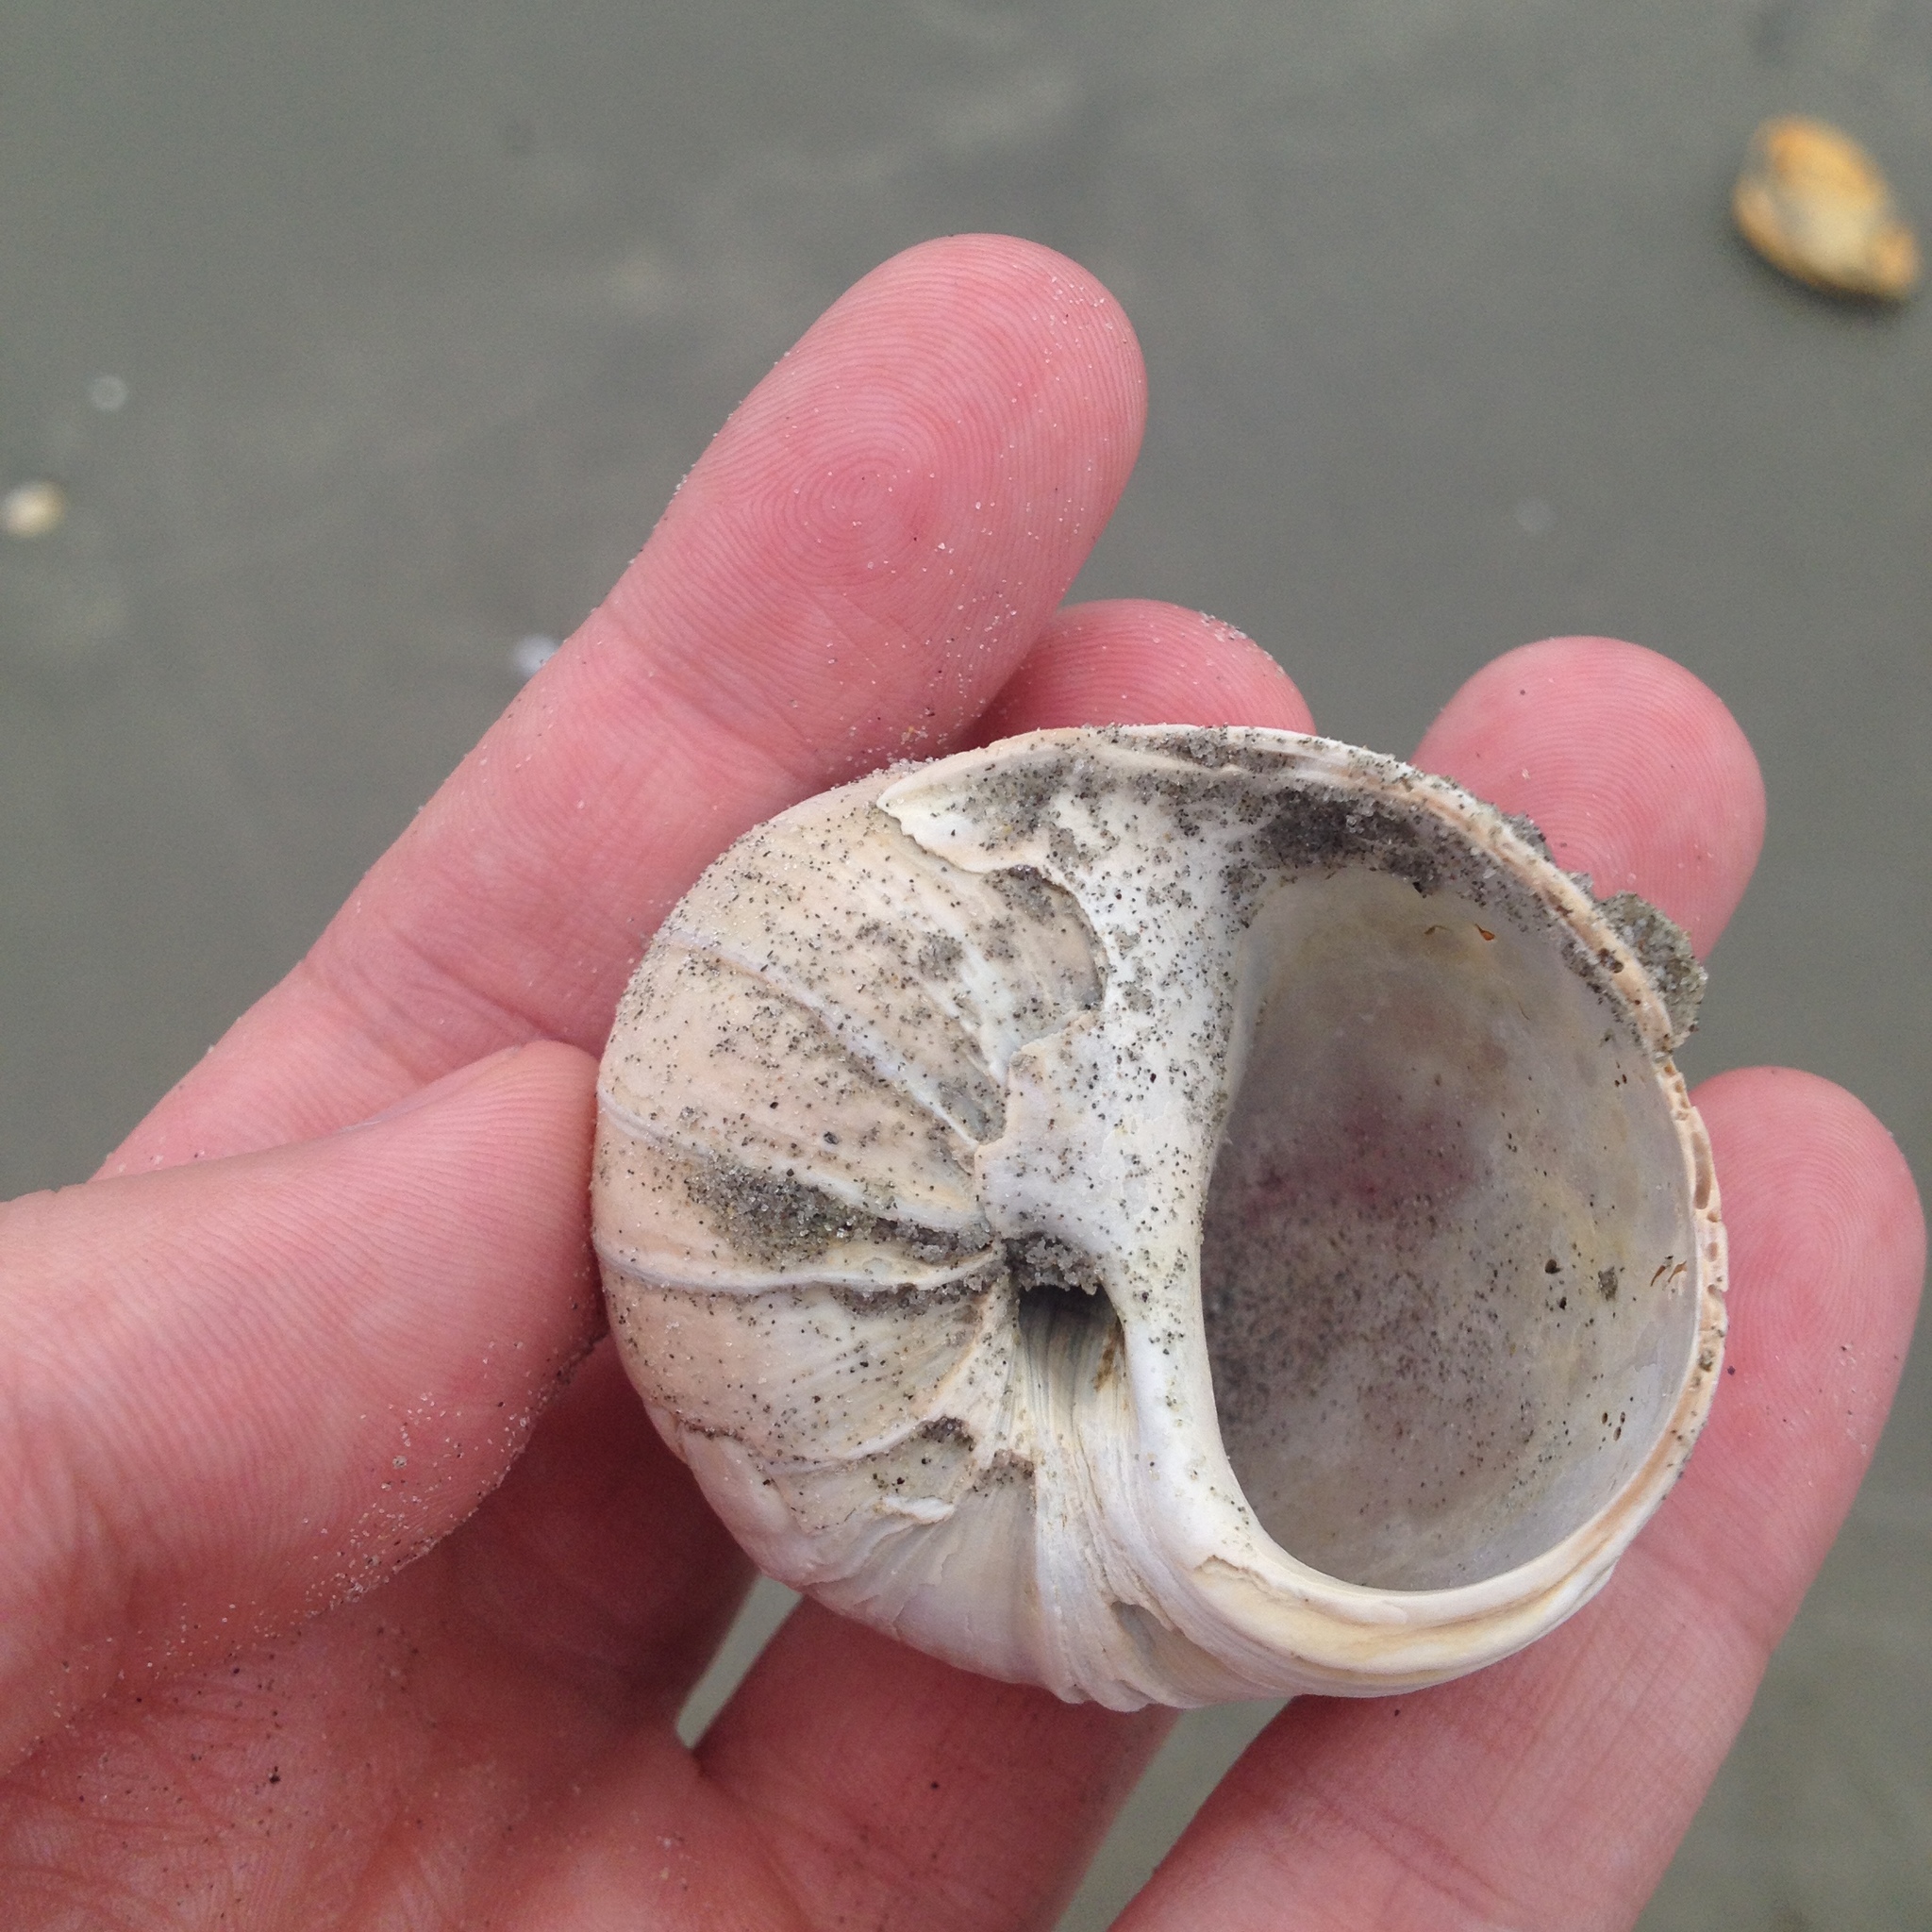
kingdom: Animalia
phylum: Mollusca
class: Gastropoda
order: Littorinimorpha
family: Naticidae
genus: Euspira
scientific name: Euspira heros
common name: Common northern moonsnail
